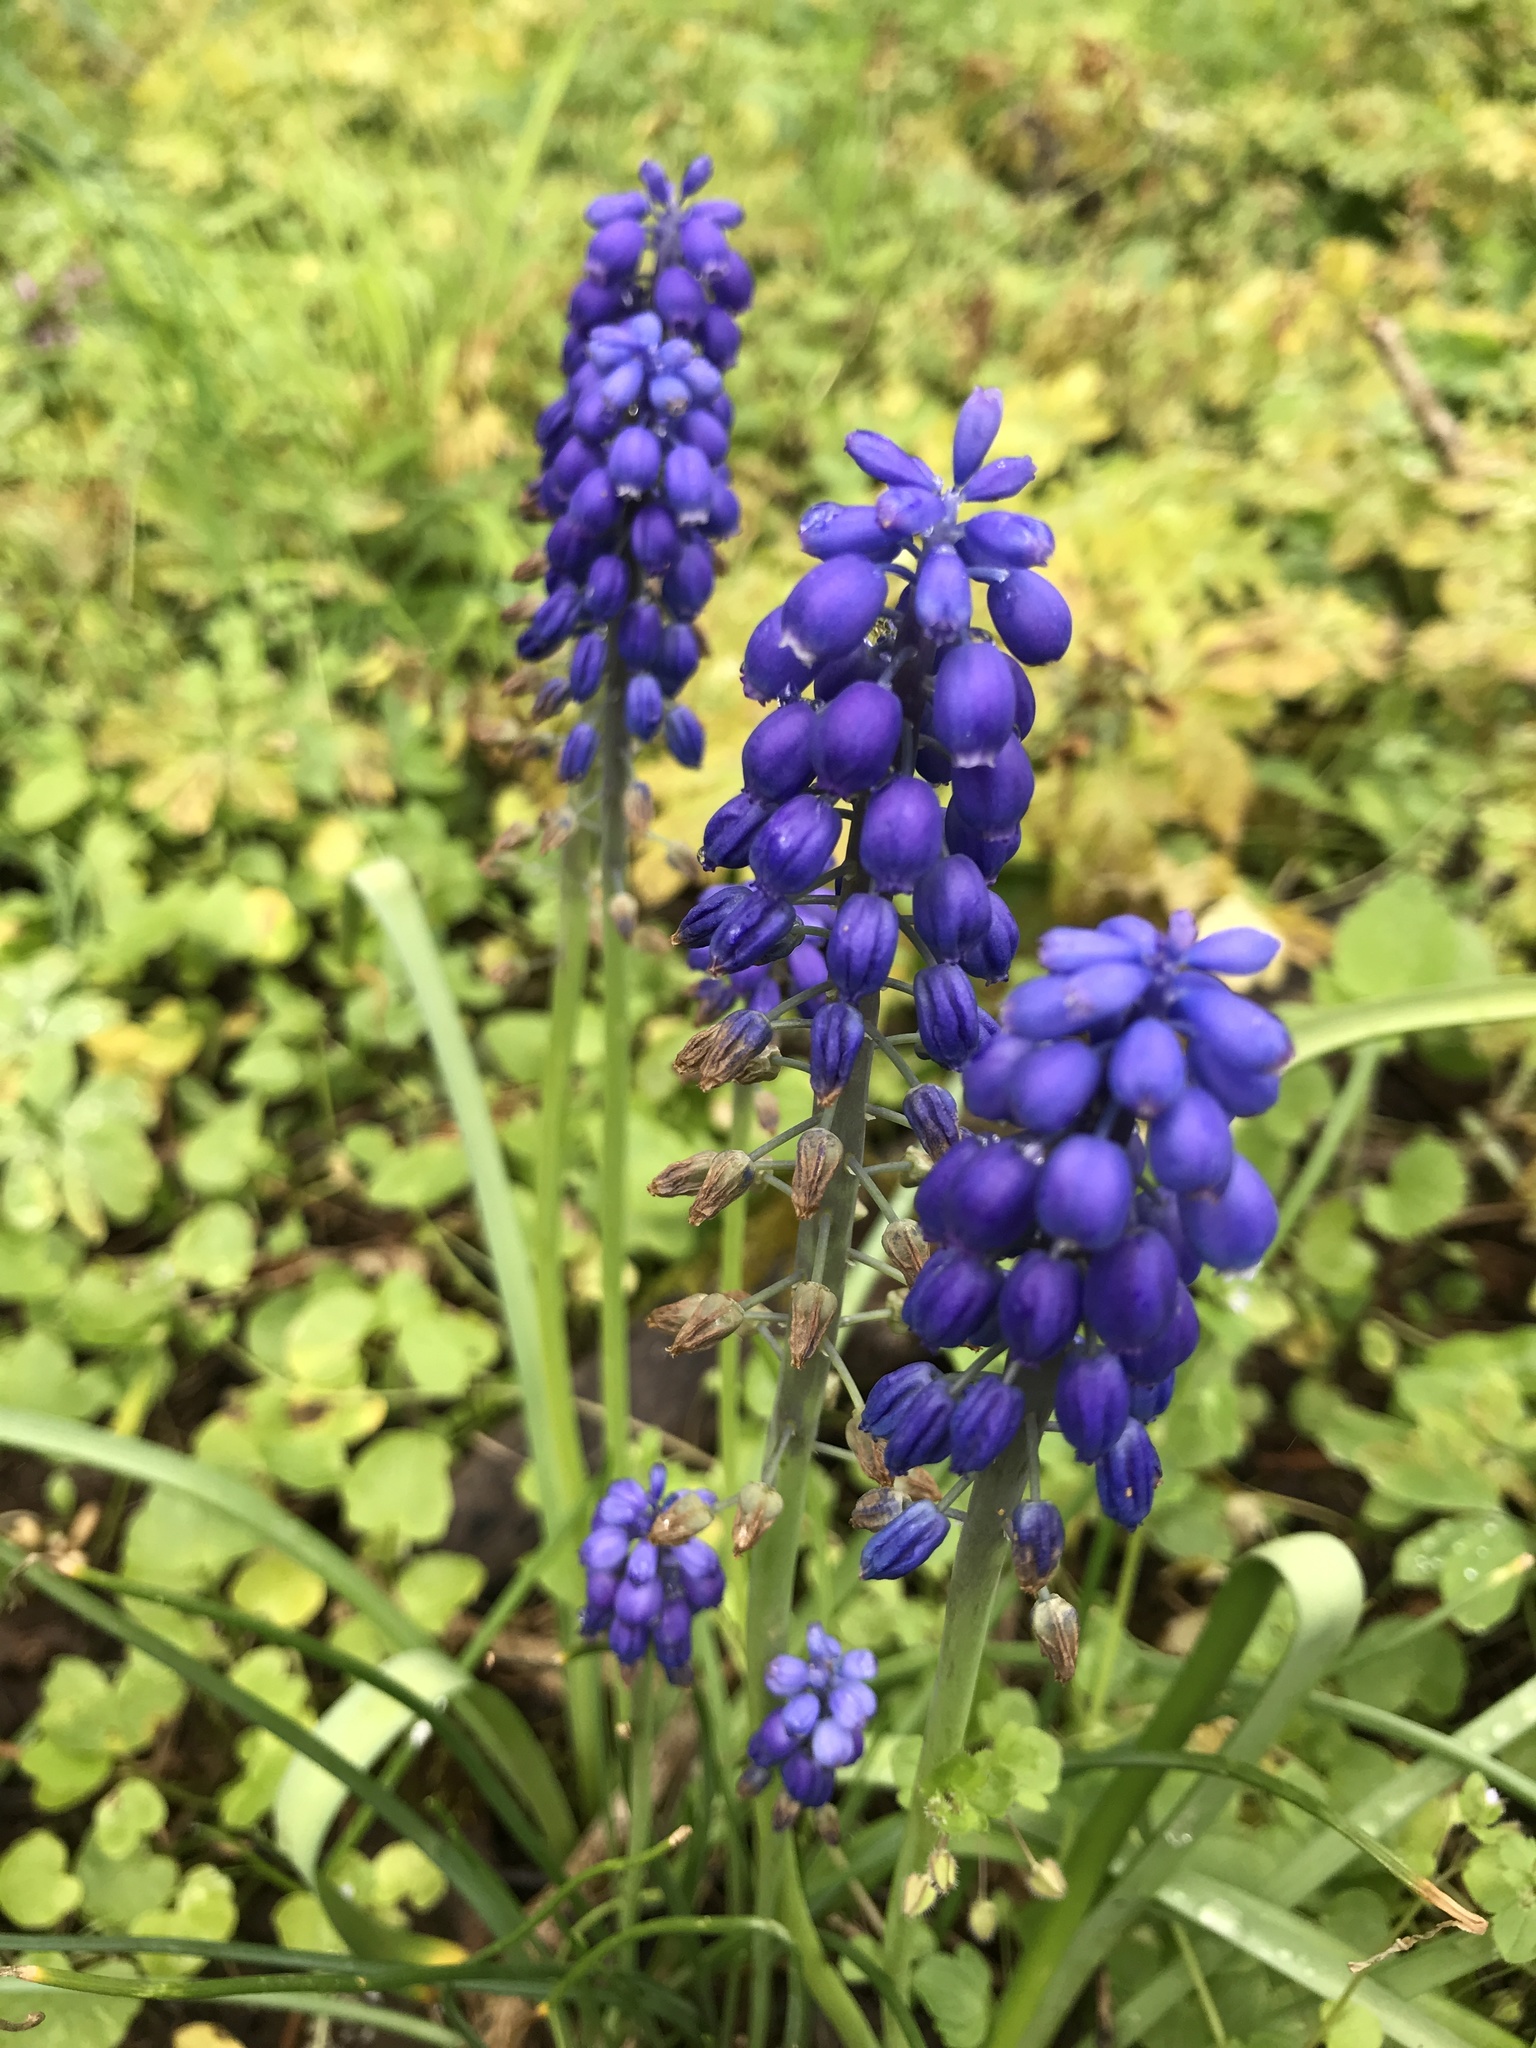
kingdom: Plantae
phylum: Tracheophyta
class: Liliopsida
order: Asparagales
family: Asparagaceae
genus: Muscari
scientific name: Muscari armeniacum
